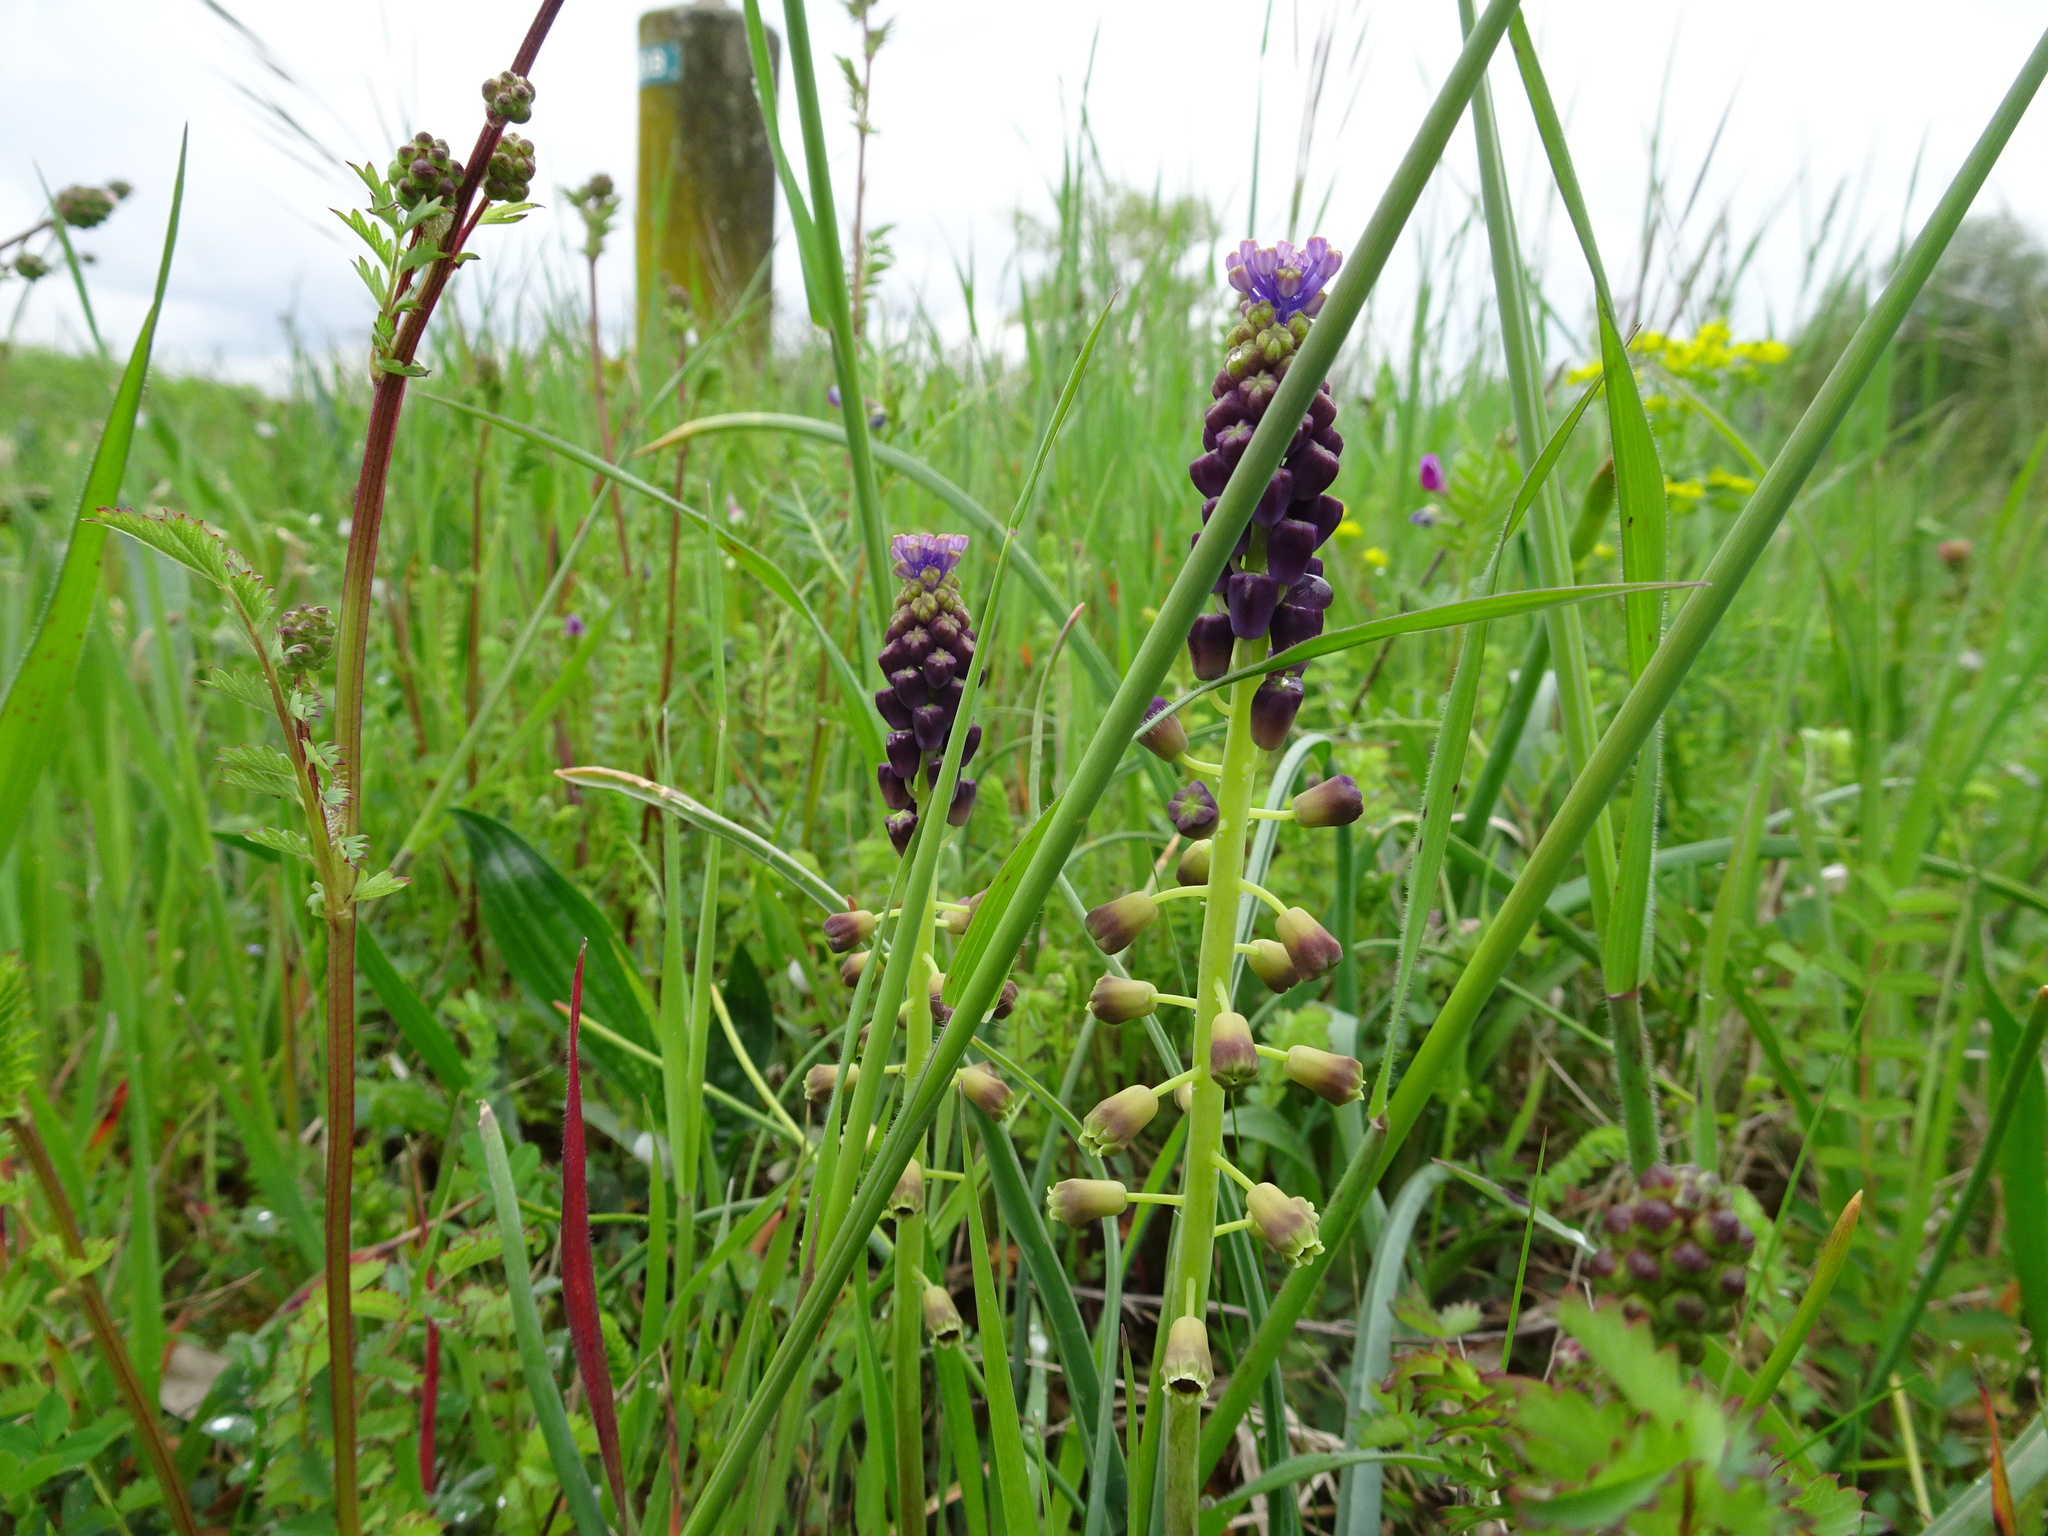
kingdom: Plantae
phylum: Tracheophyta
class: Liliopsida
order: Asparagales
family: Asparagaceae
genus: Muscari
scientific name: Muscari comosum
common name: Tassel hyacinth
